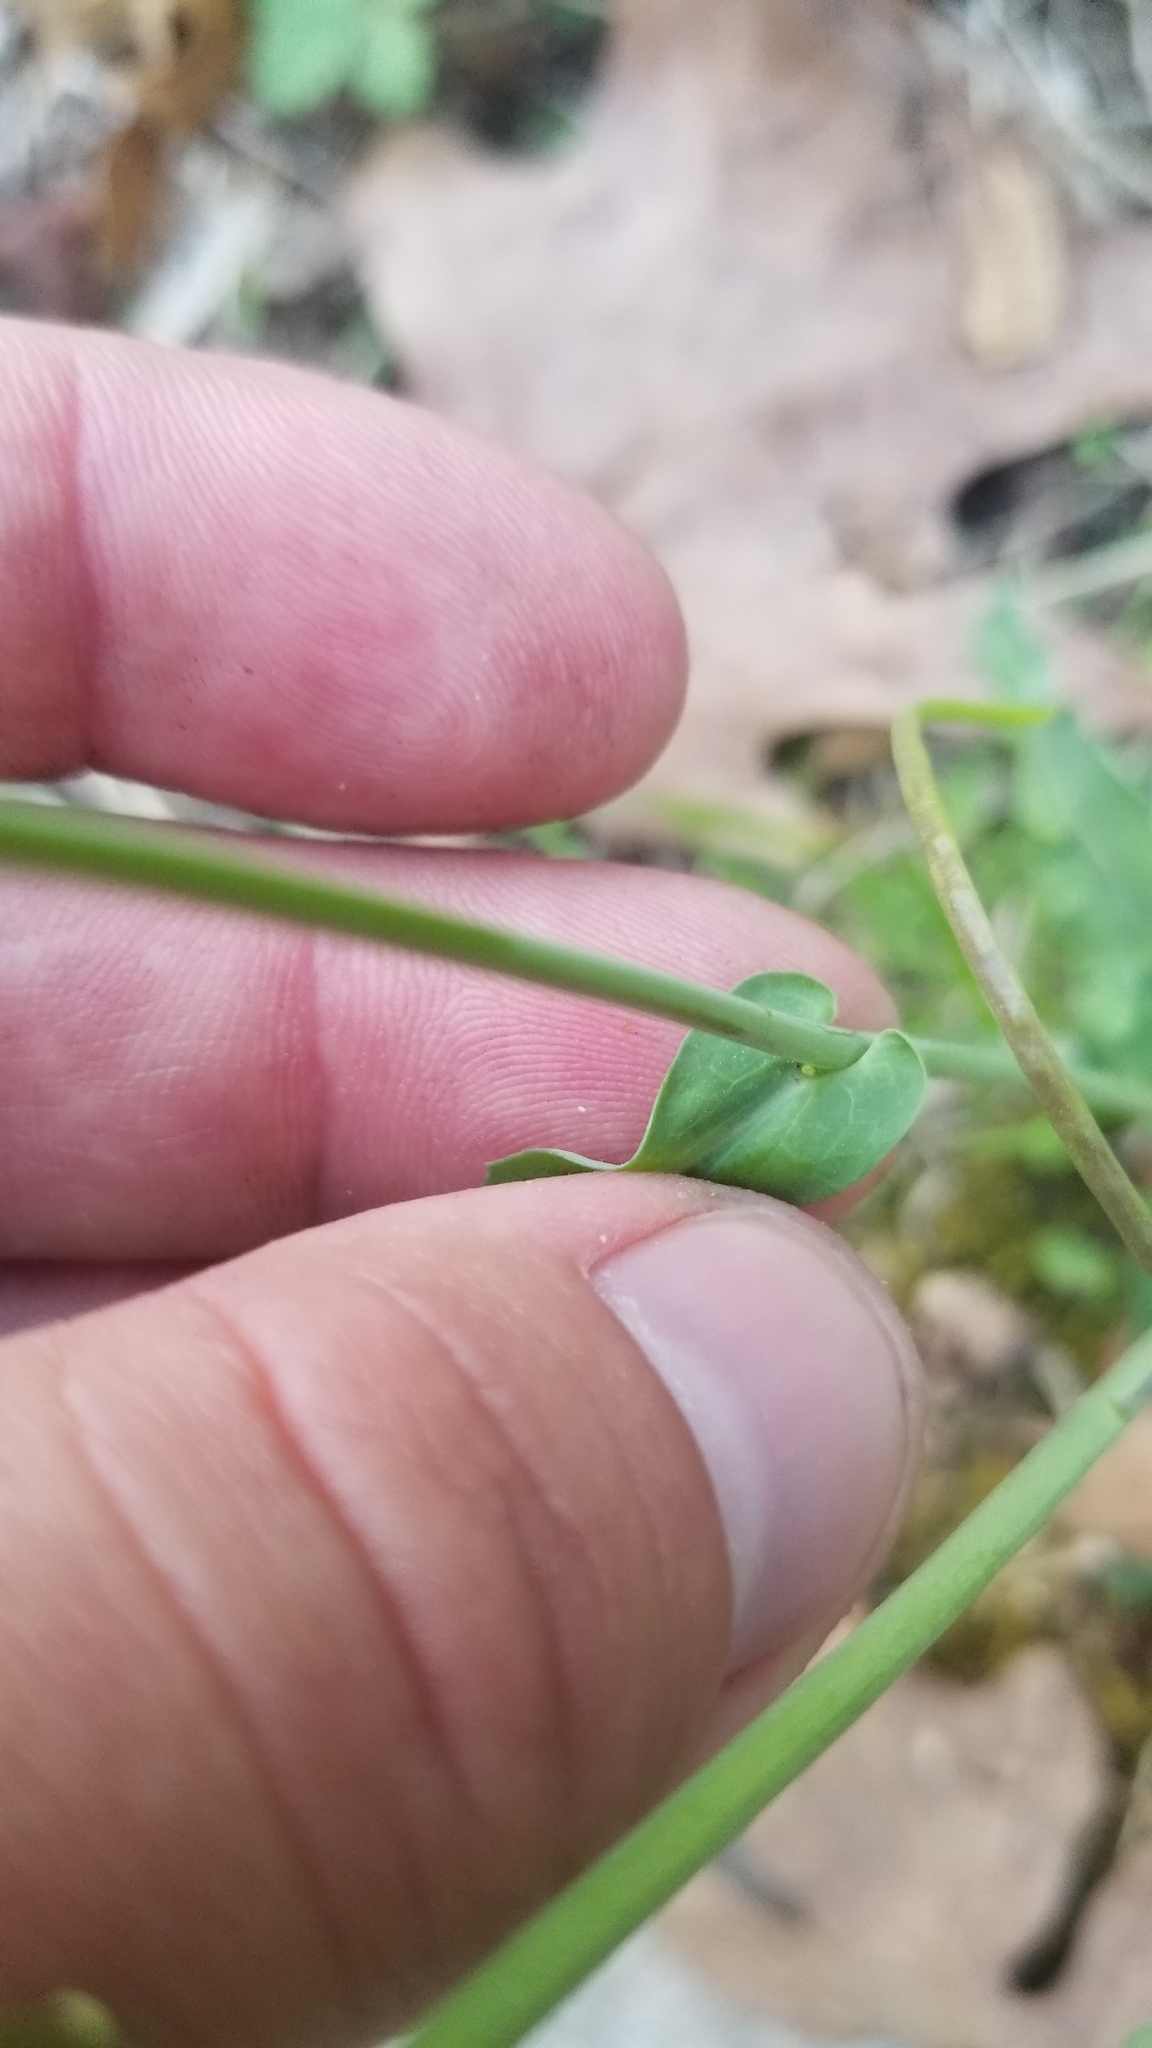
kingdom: Plantae
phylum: Tracheophyta
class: Magnoliopsida
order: Brassicales
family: Brassicaceae
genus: Borodinia
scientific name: Borodinia laevigata
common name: Smooth rockcress
